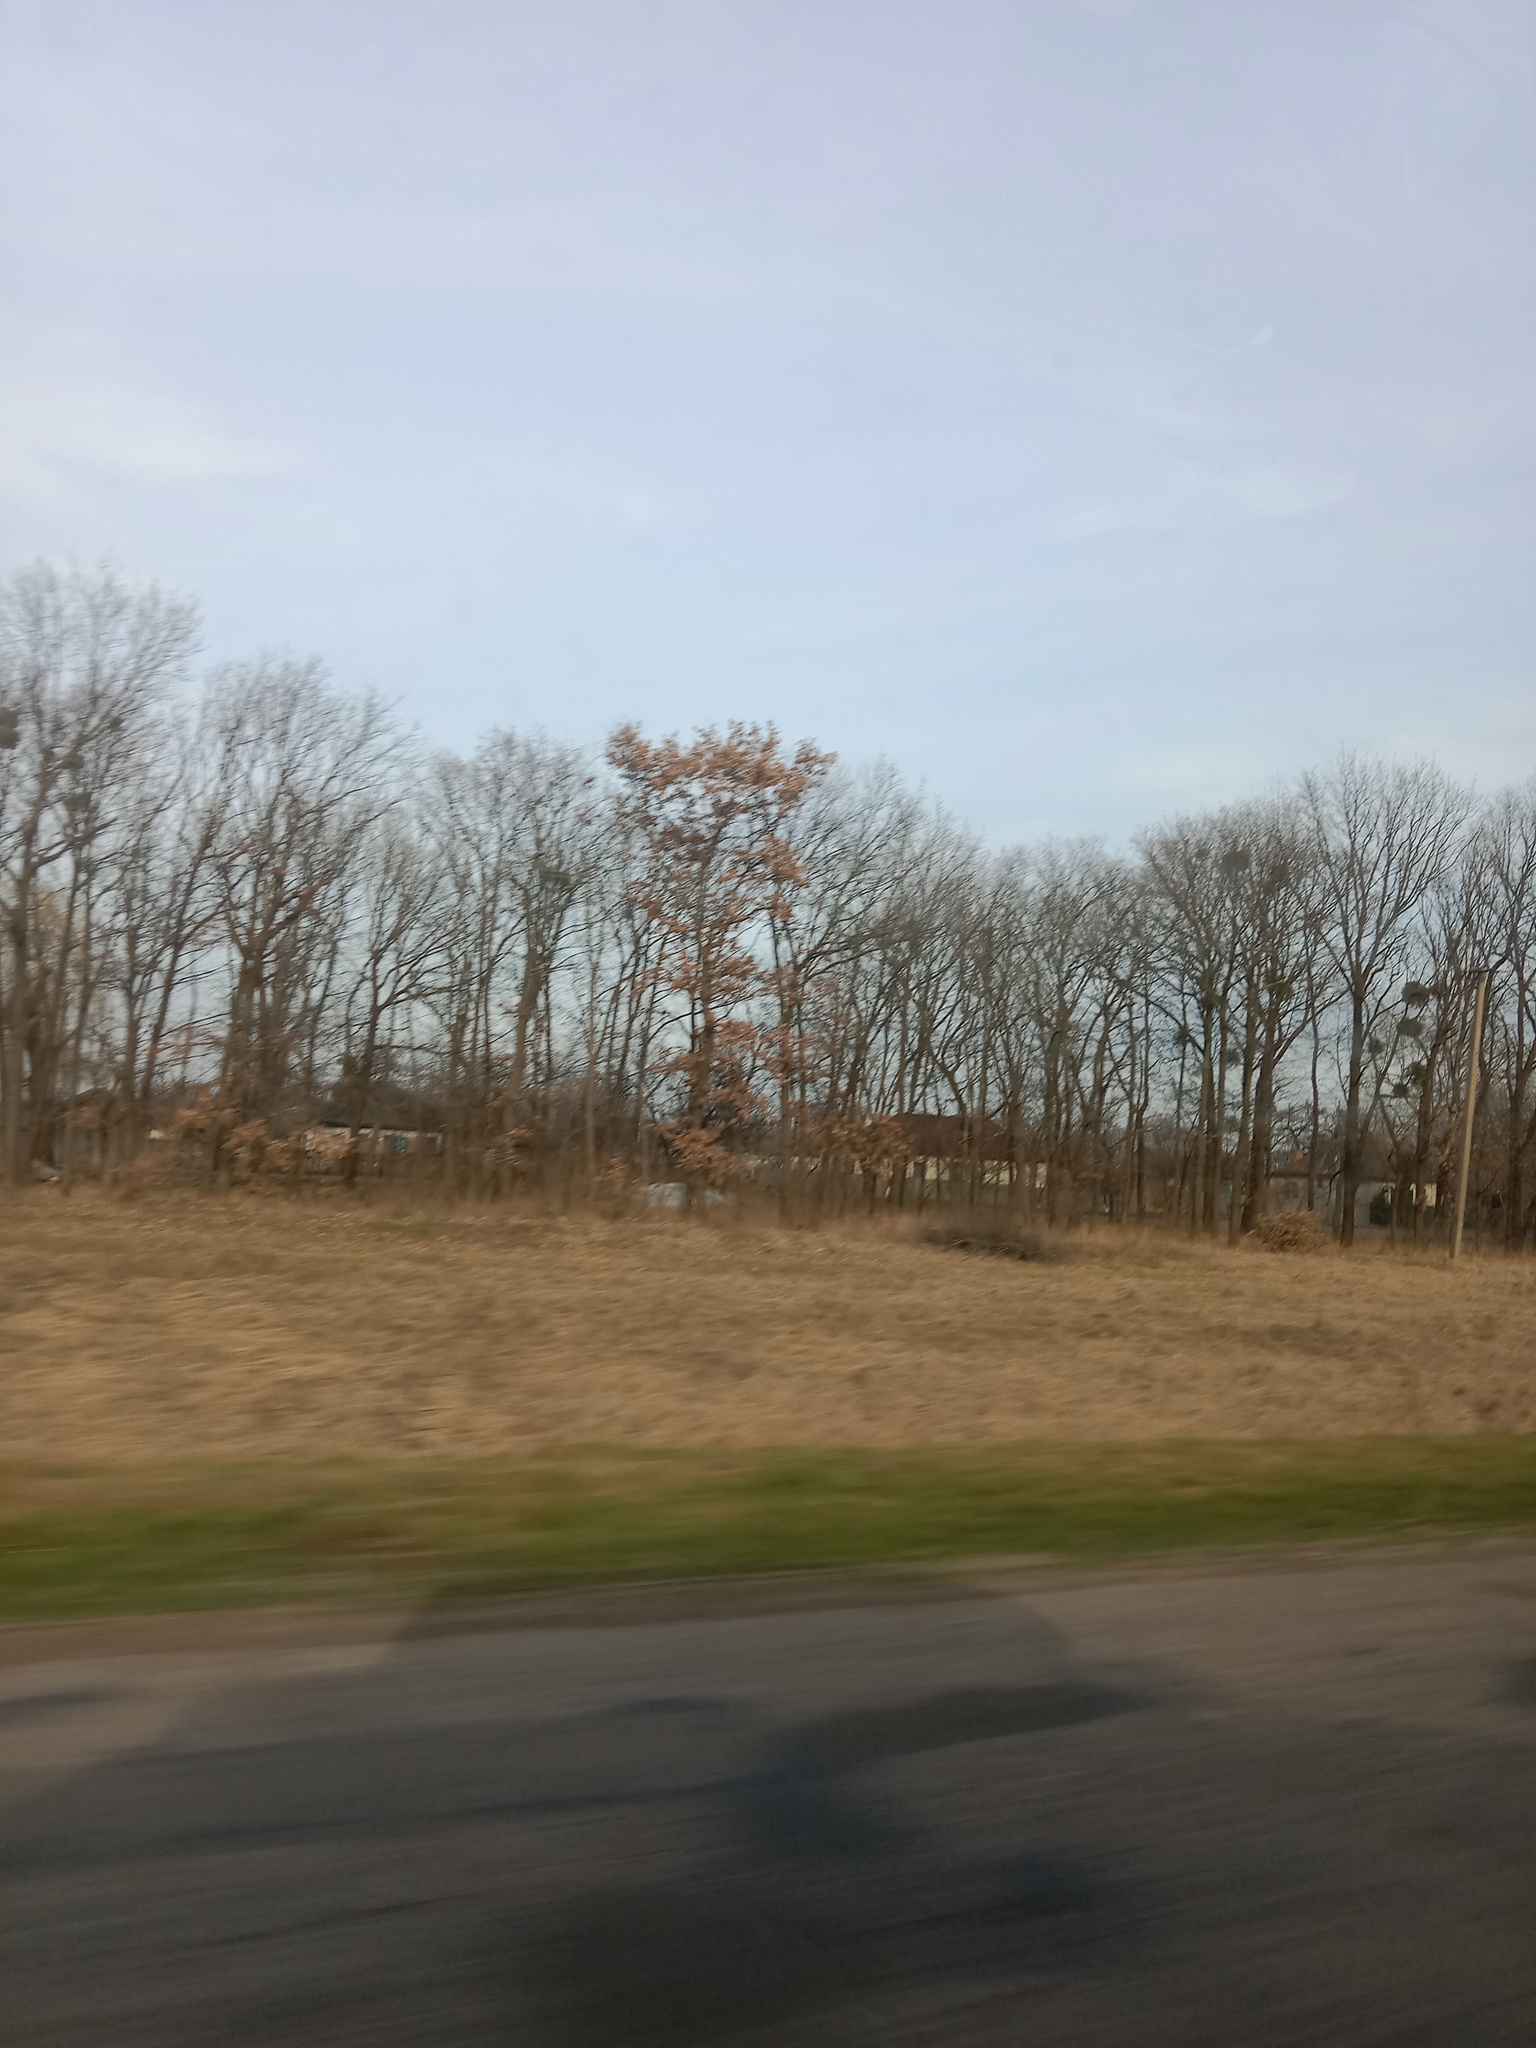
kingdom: Plantae
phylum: Tracheophyta
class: Magnoliopsida
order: Santalales
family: Viscaceae
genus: Viscum
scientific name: Viscum album
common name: Mistletoe
